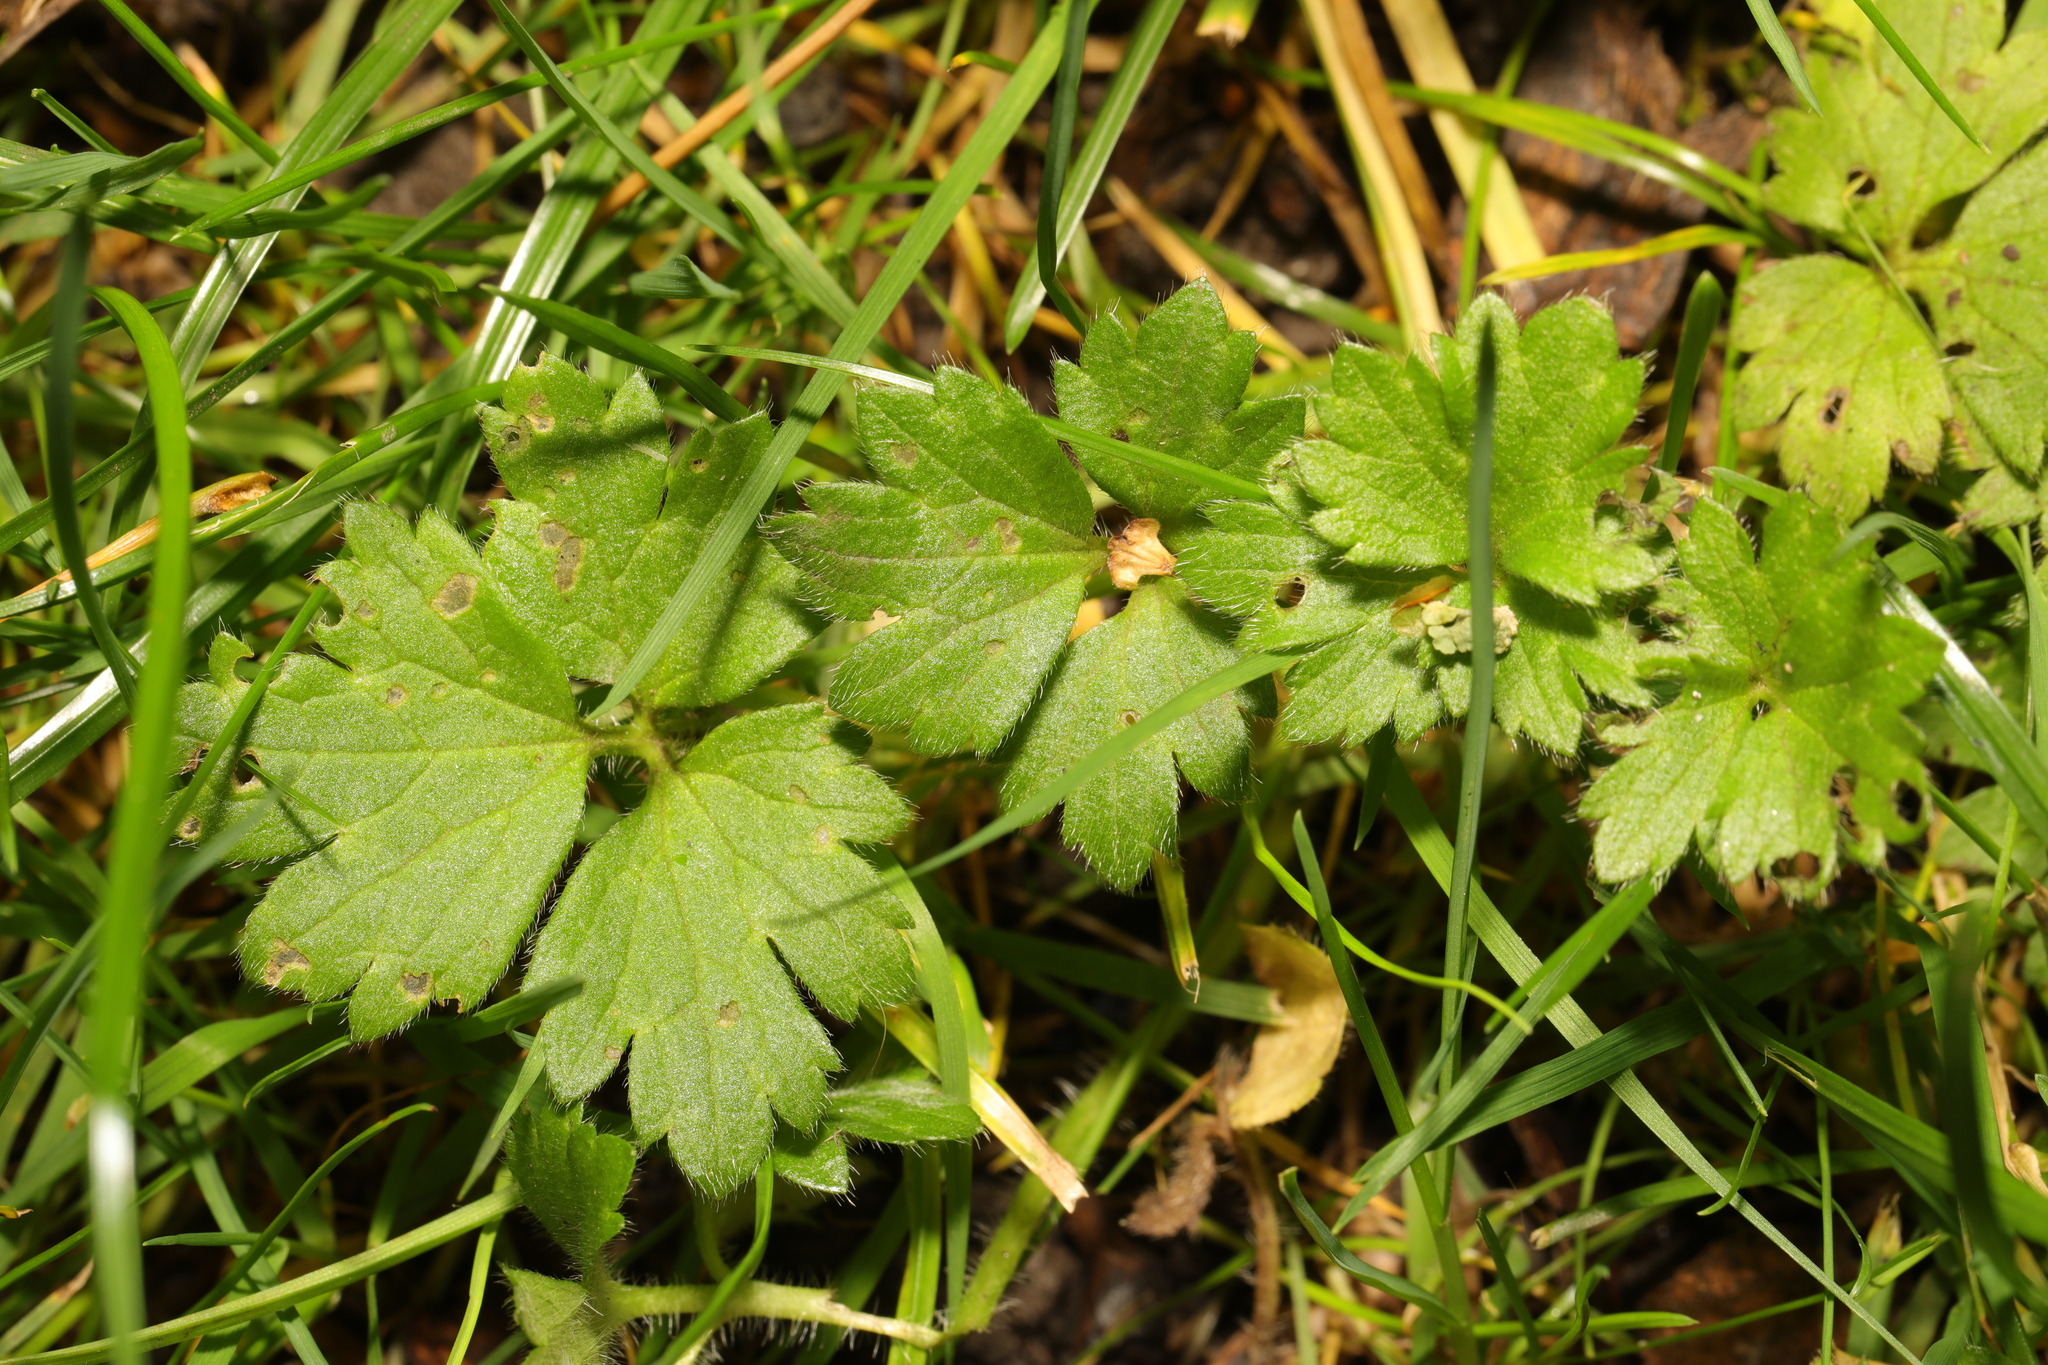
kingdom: Plantae
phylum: Tracheophyta
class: Magnoliopsida
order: Ranunculales
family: Ranunculaceae
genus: Ranunculus
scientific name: Ranunculus repens
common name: Creeping buttercup
